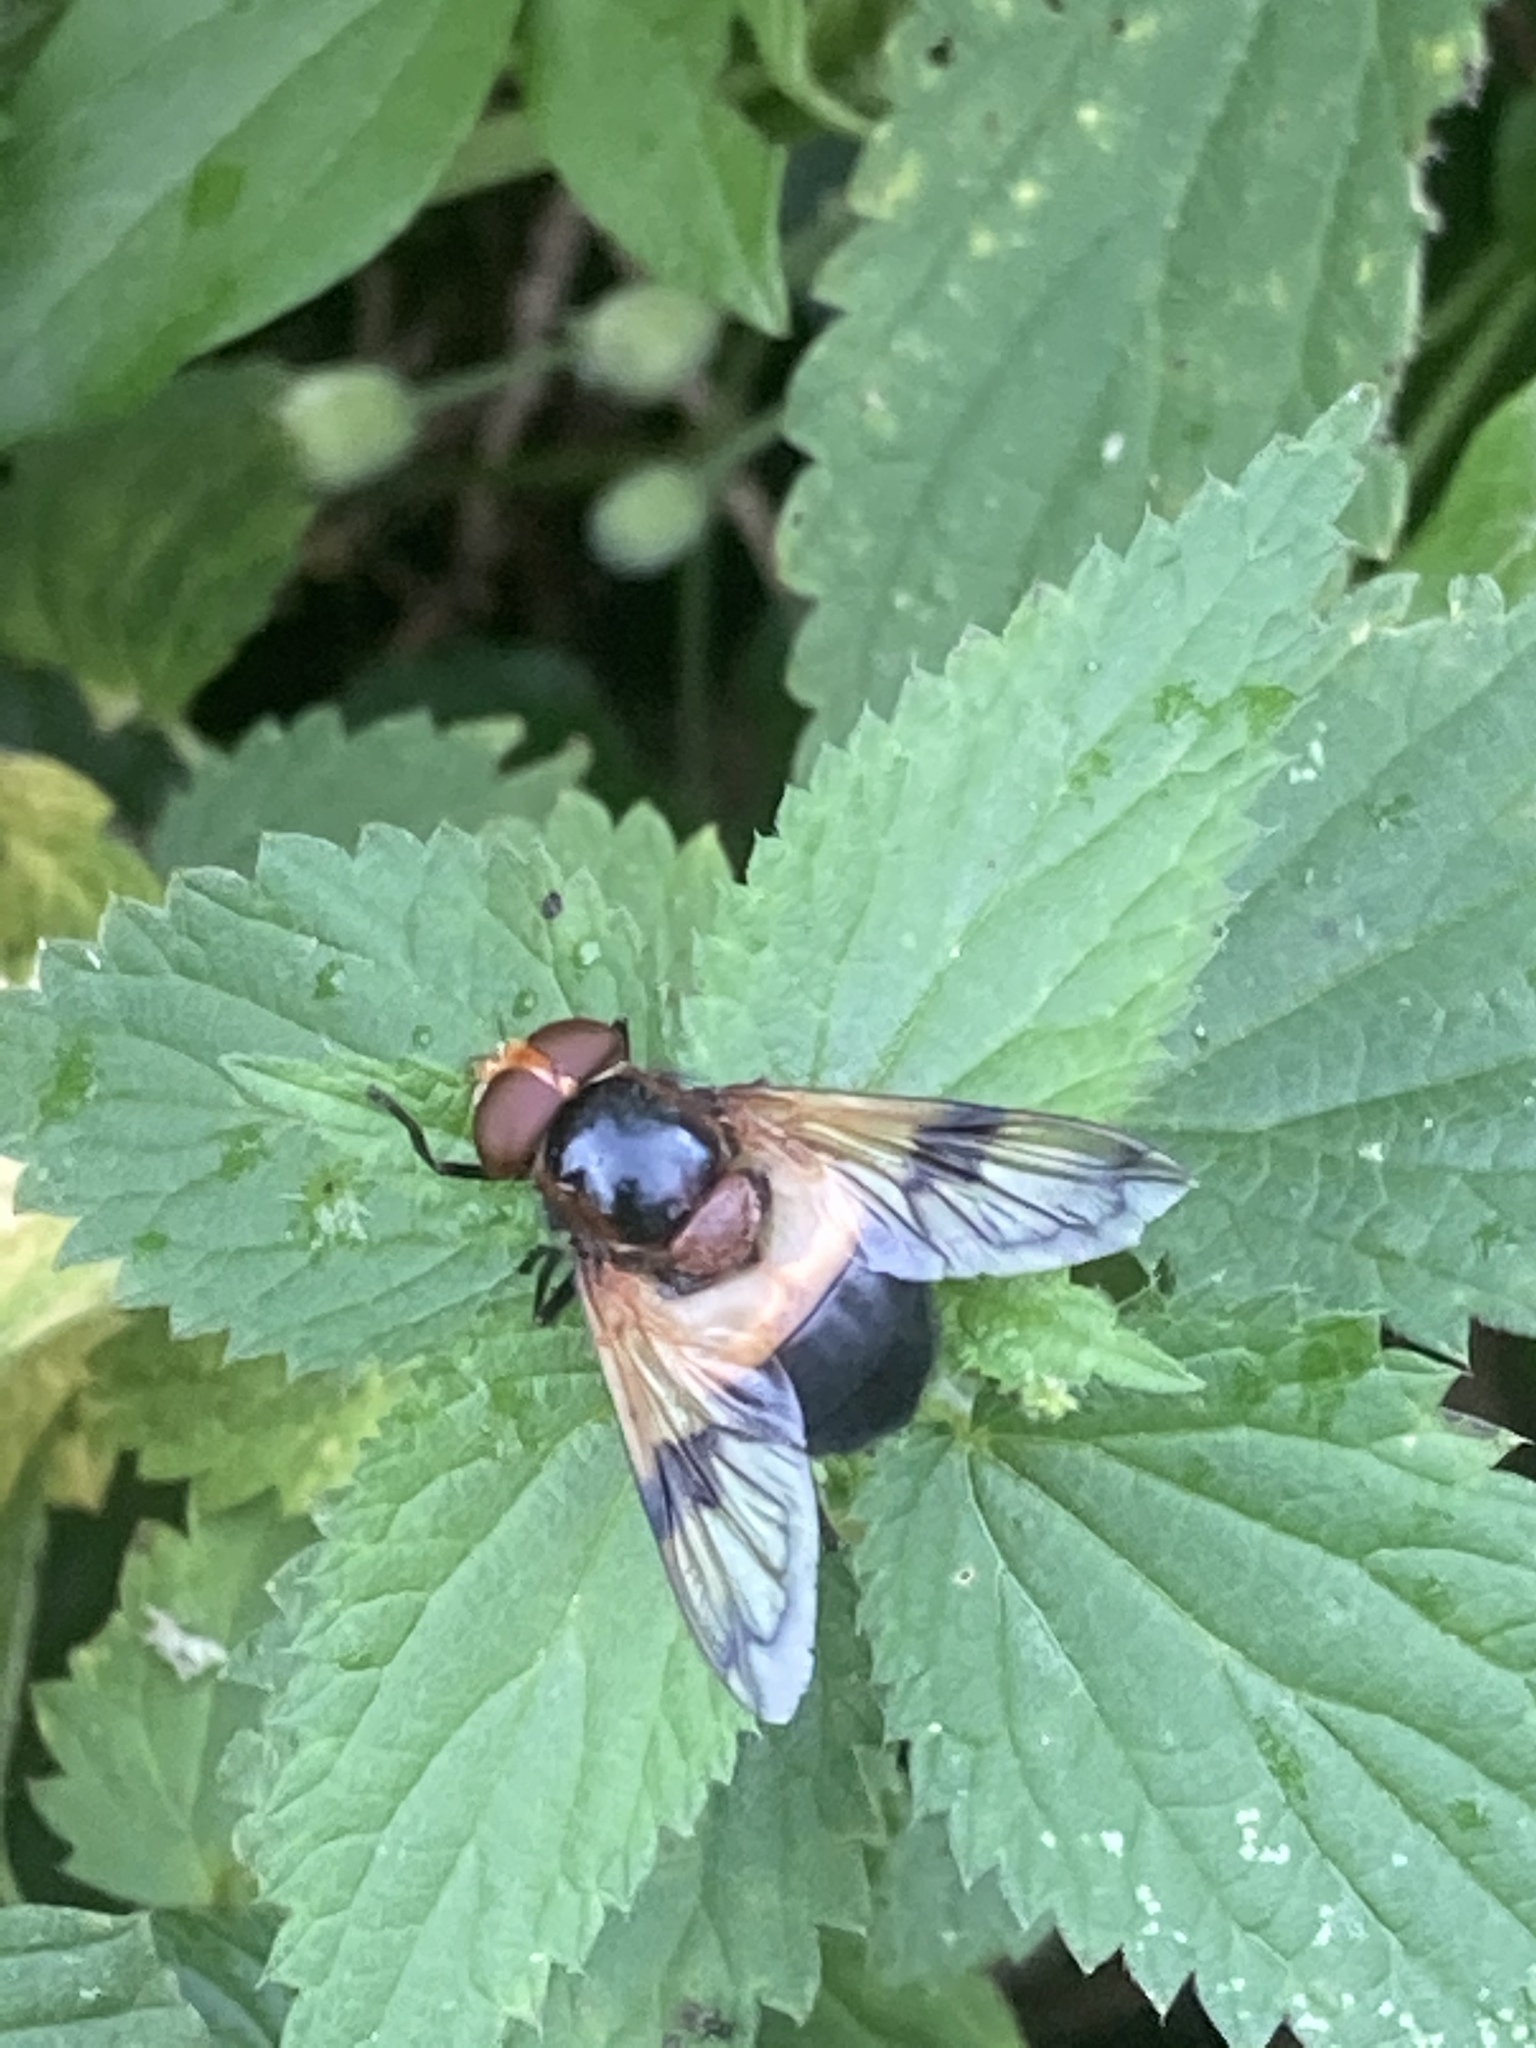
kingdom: Animalia
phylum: Arthropoda
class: Insecta
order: Diptera
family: Syrphidae
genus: Volucella
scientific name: Volucella pellucens
